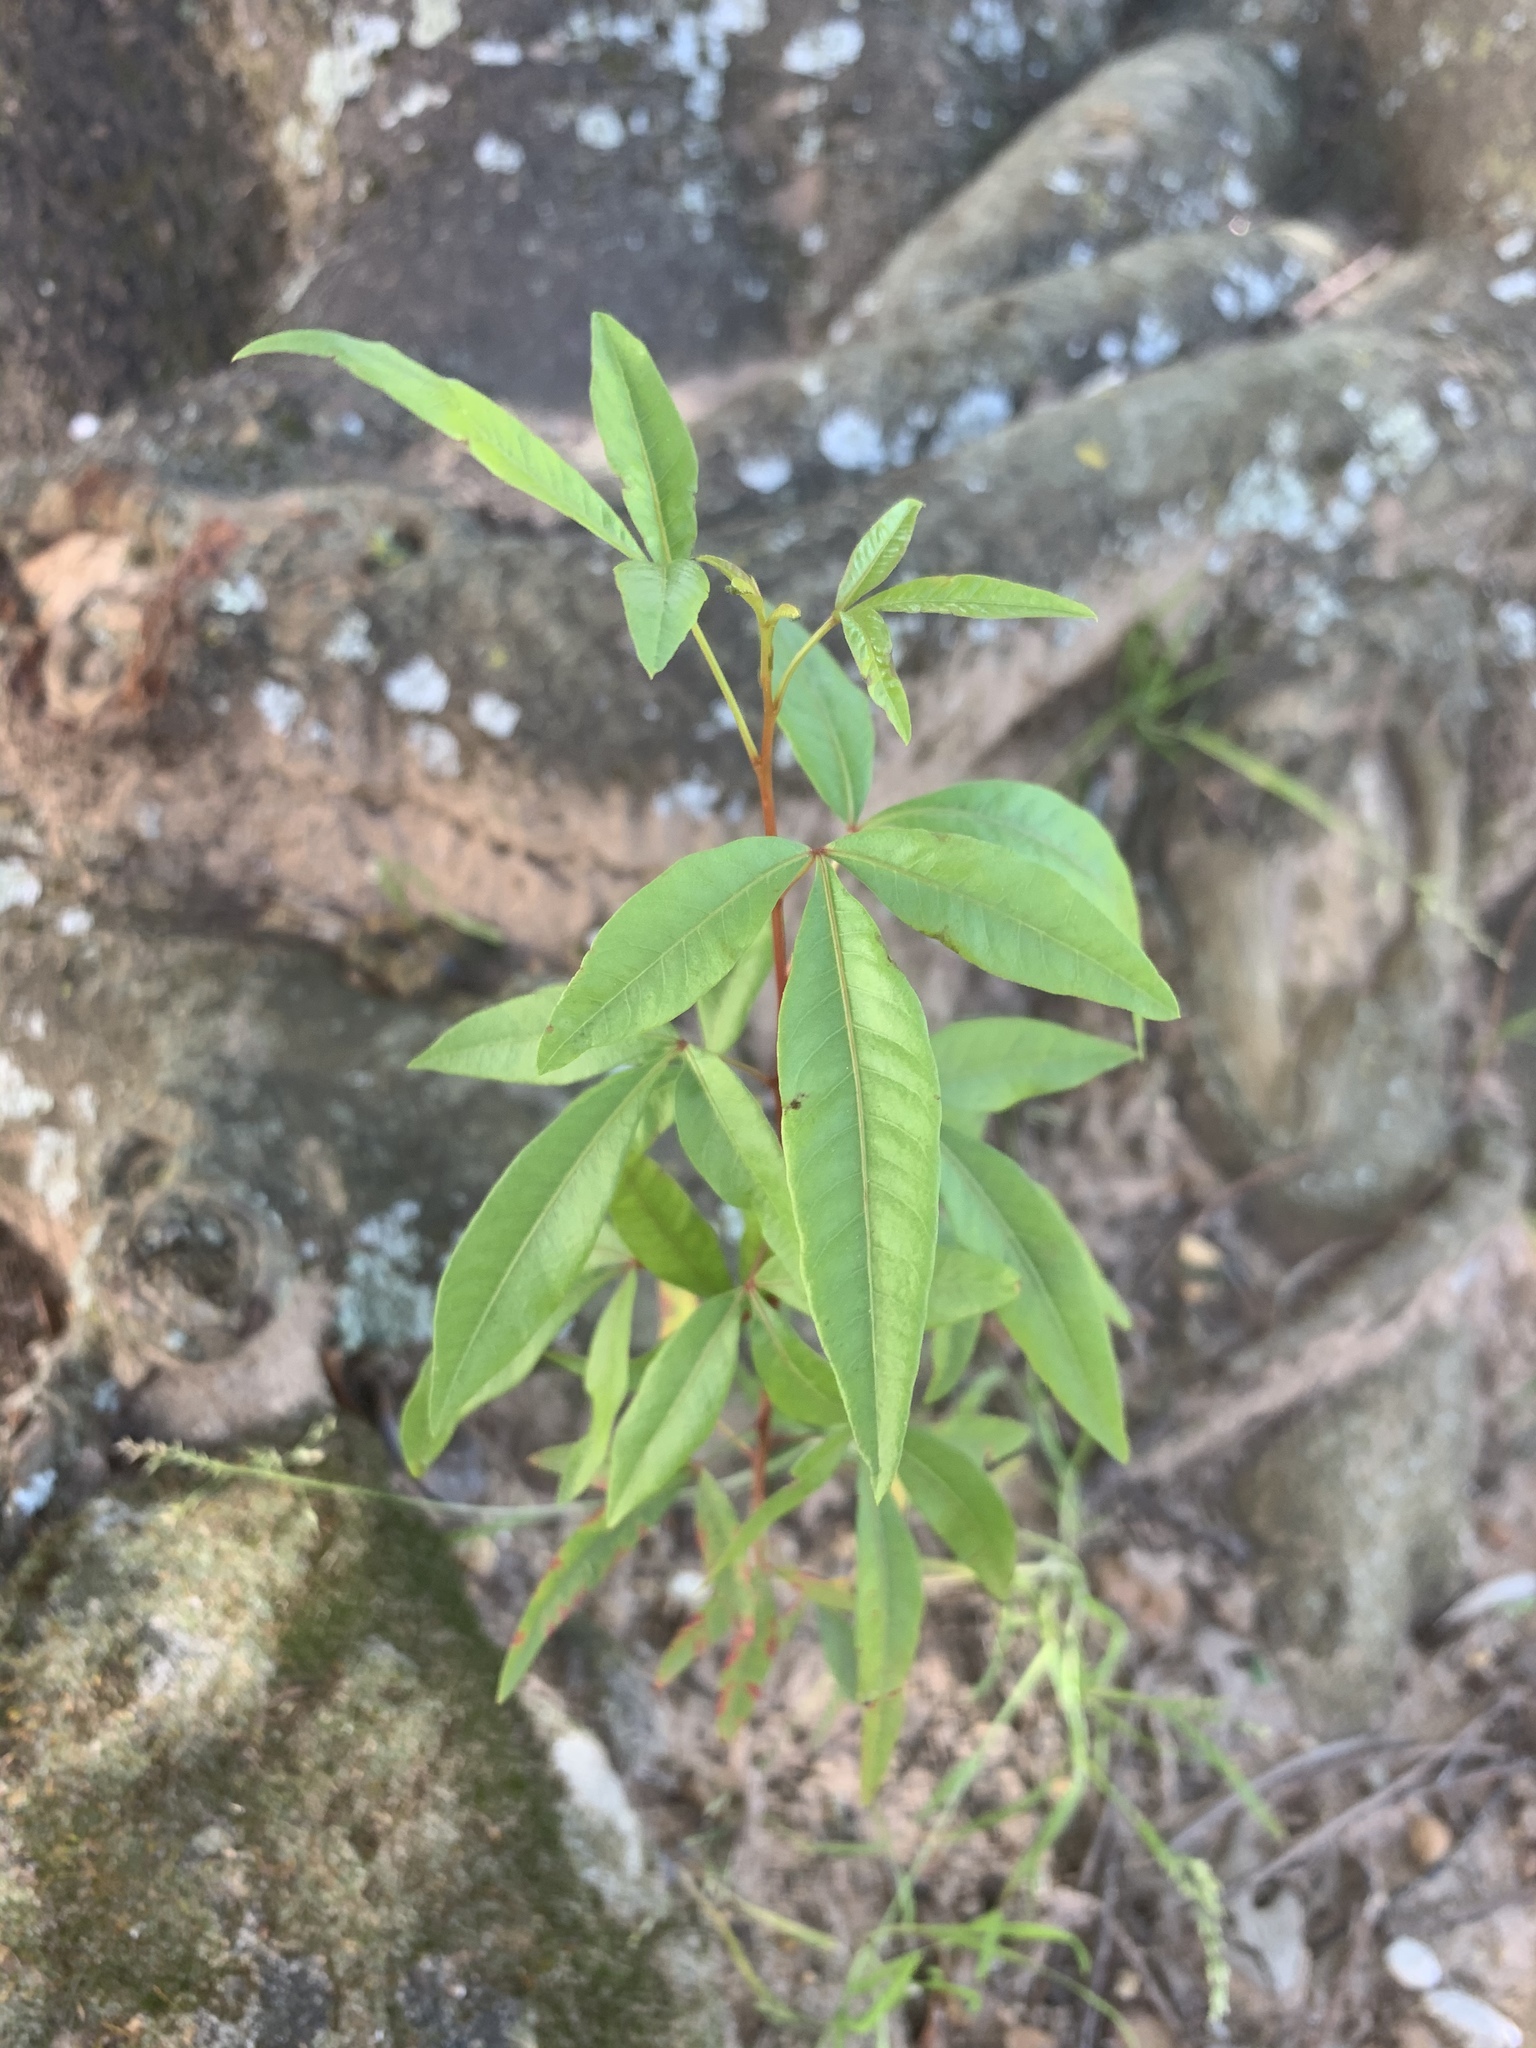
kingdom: Plantae
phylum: Tracheophyta
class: Magnoliopsida
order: Sapindales
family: Anacardiaceae
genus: Searsia
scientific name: Searsia pendulina
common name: White karee
